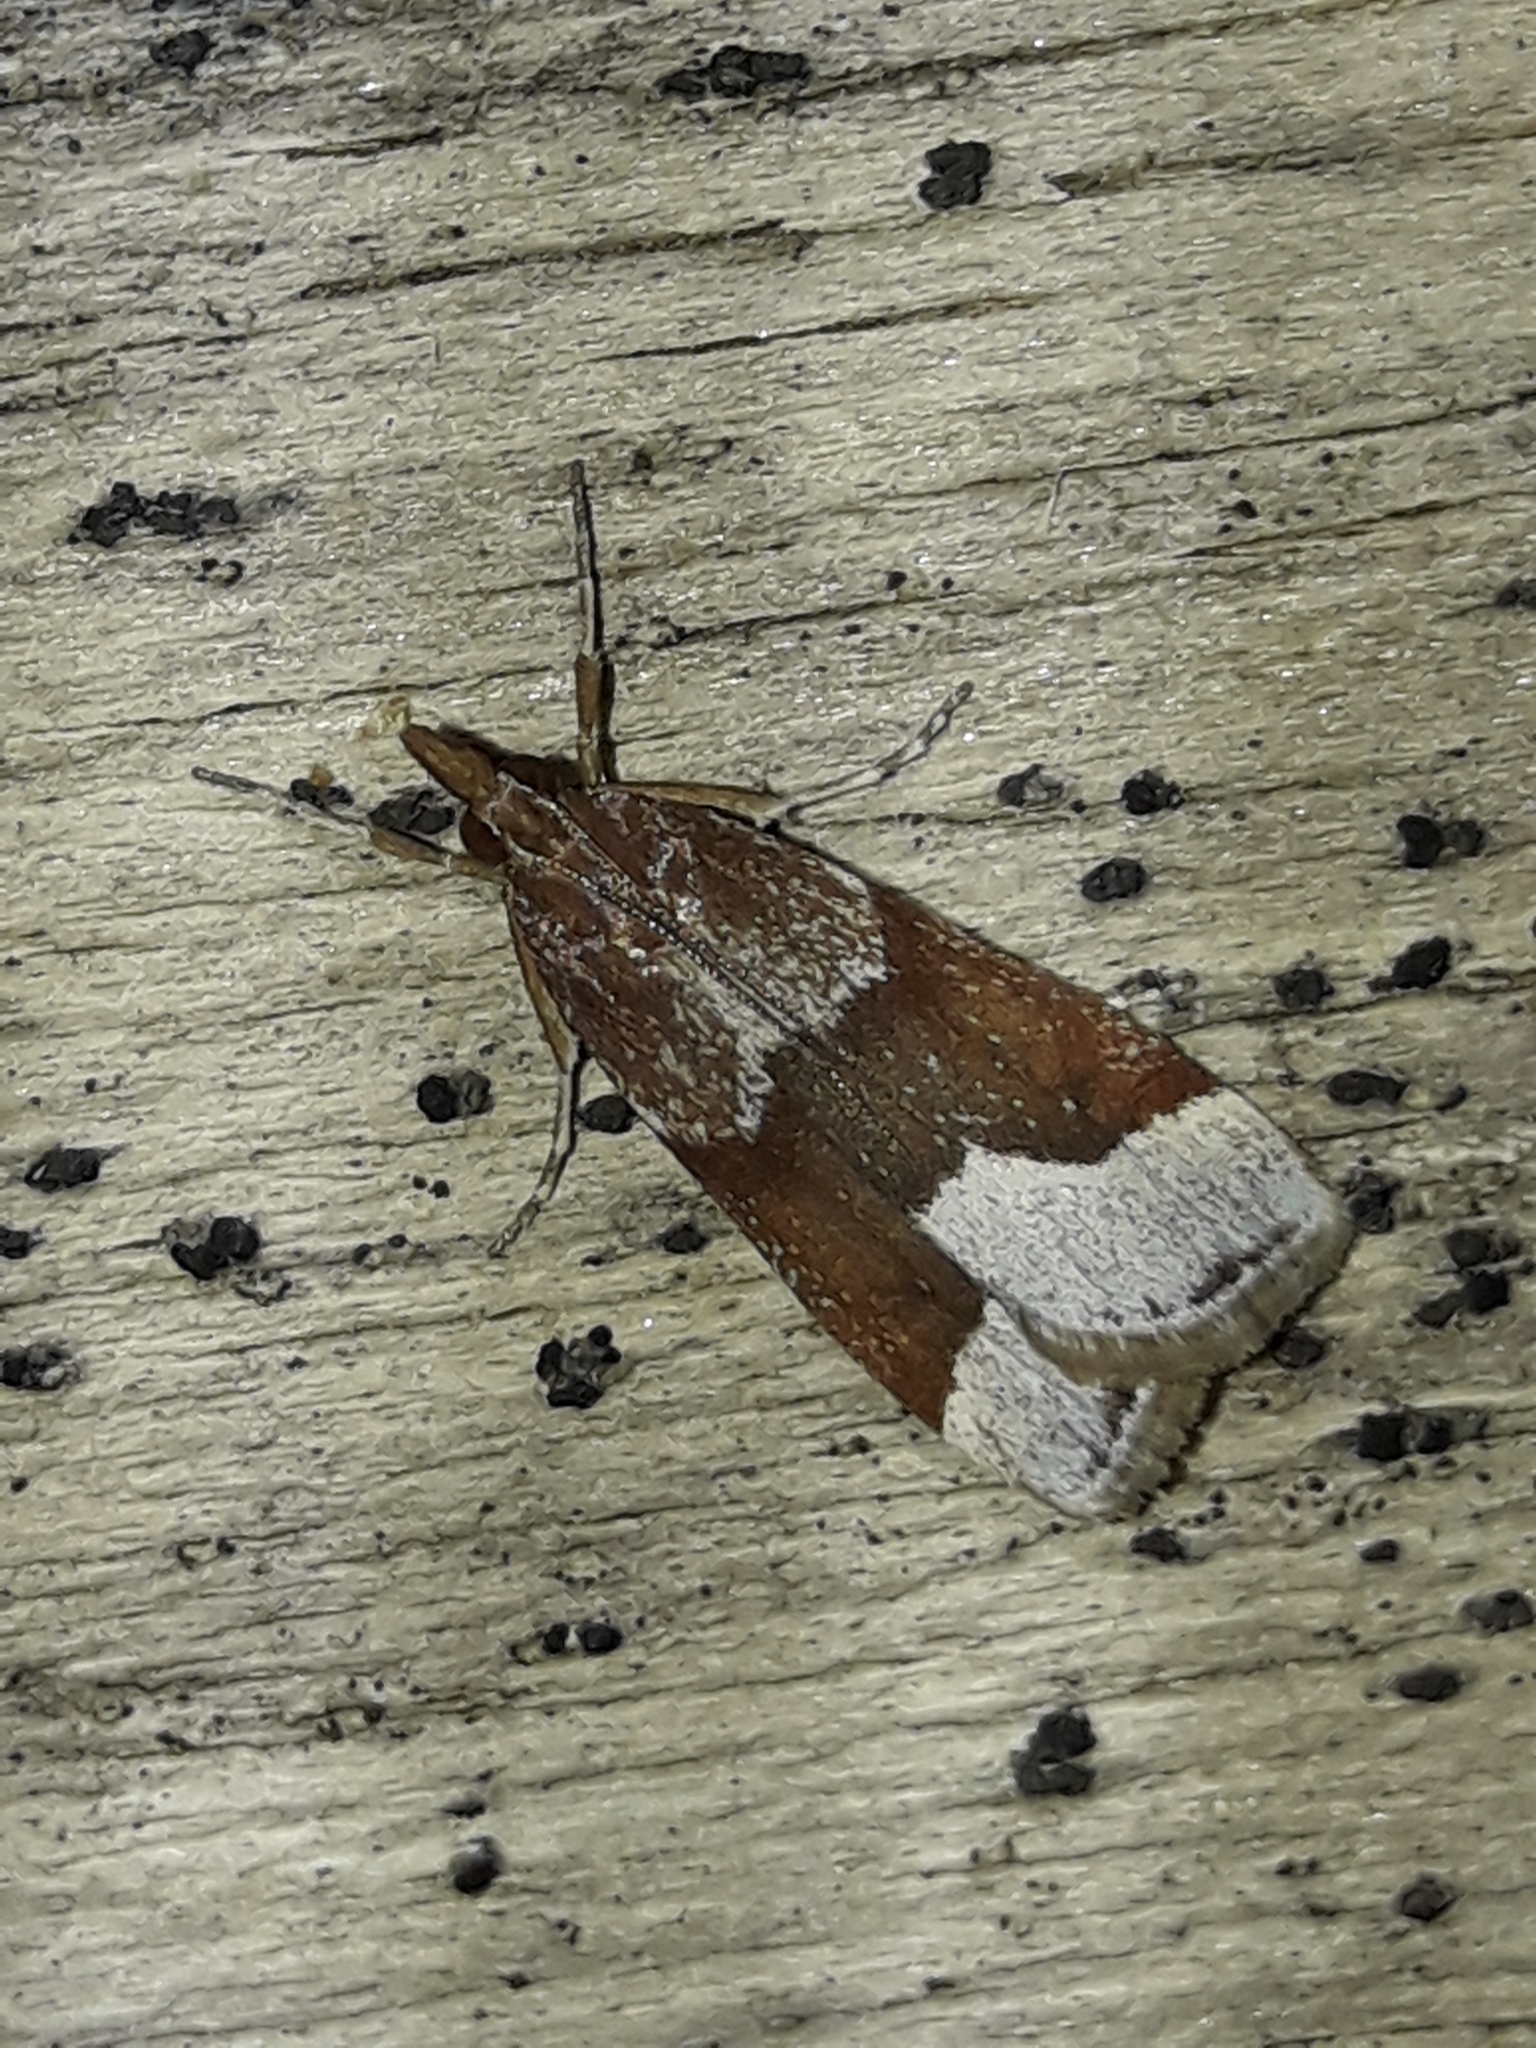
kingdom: Animalia
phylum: Arthropoda
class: Insecta
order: Lepidoptera
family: Crambidae
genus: Eudonia
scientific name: Eudonia feredayi
